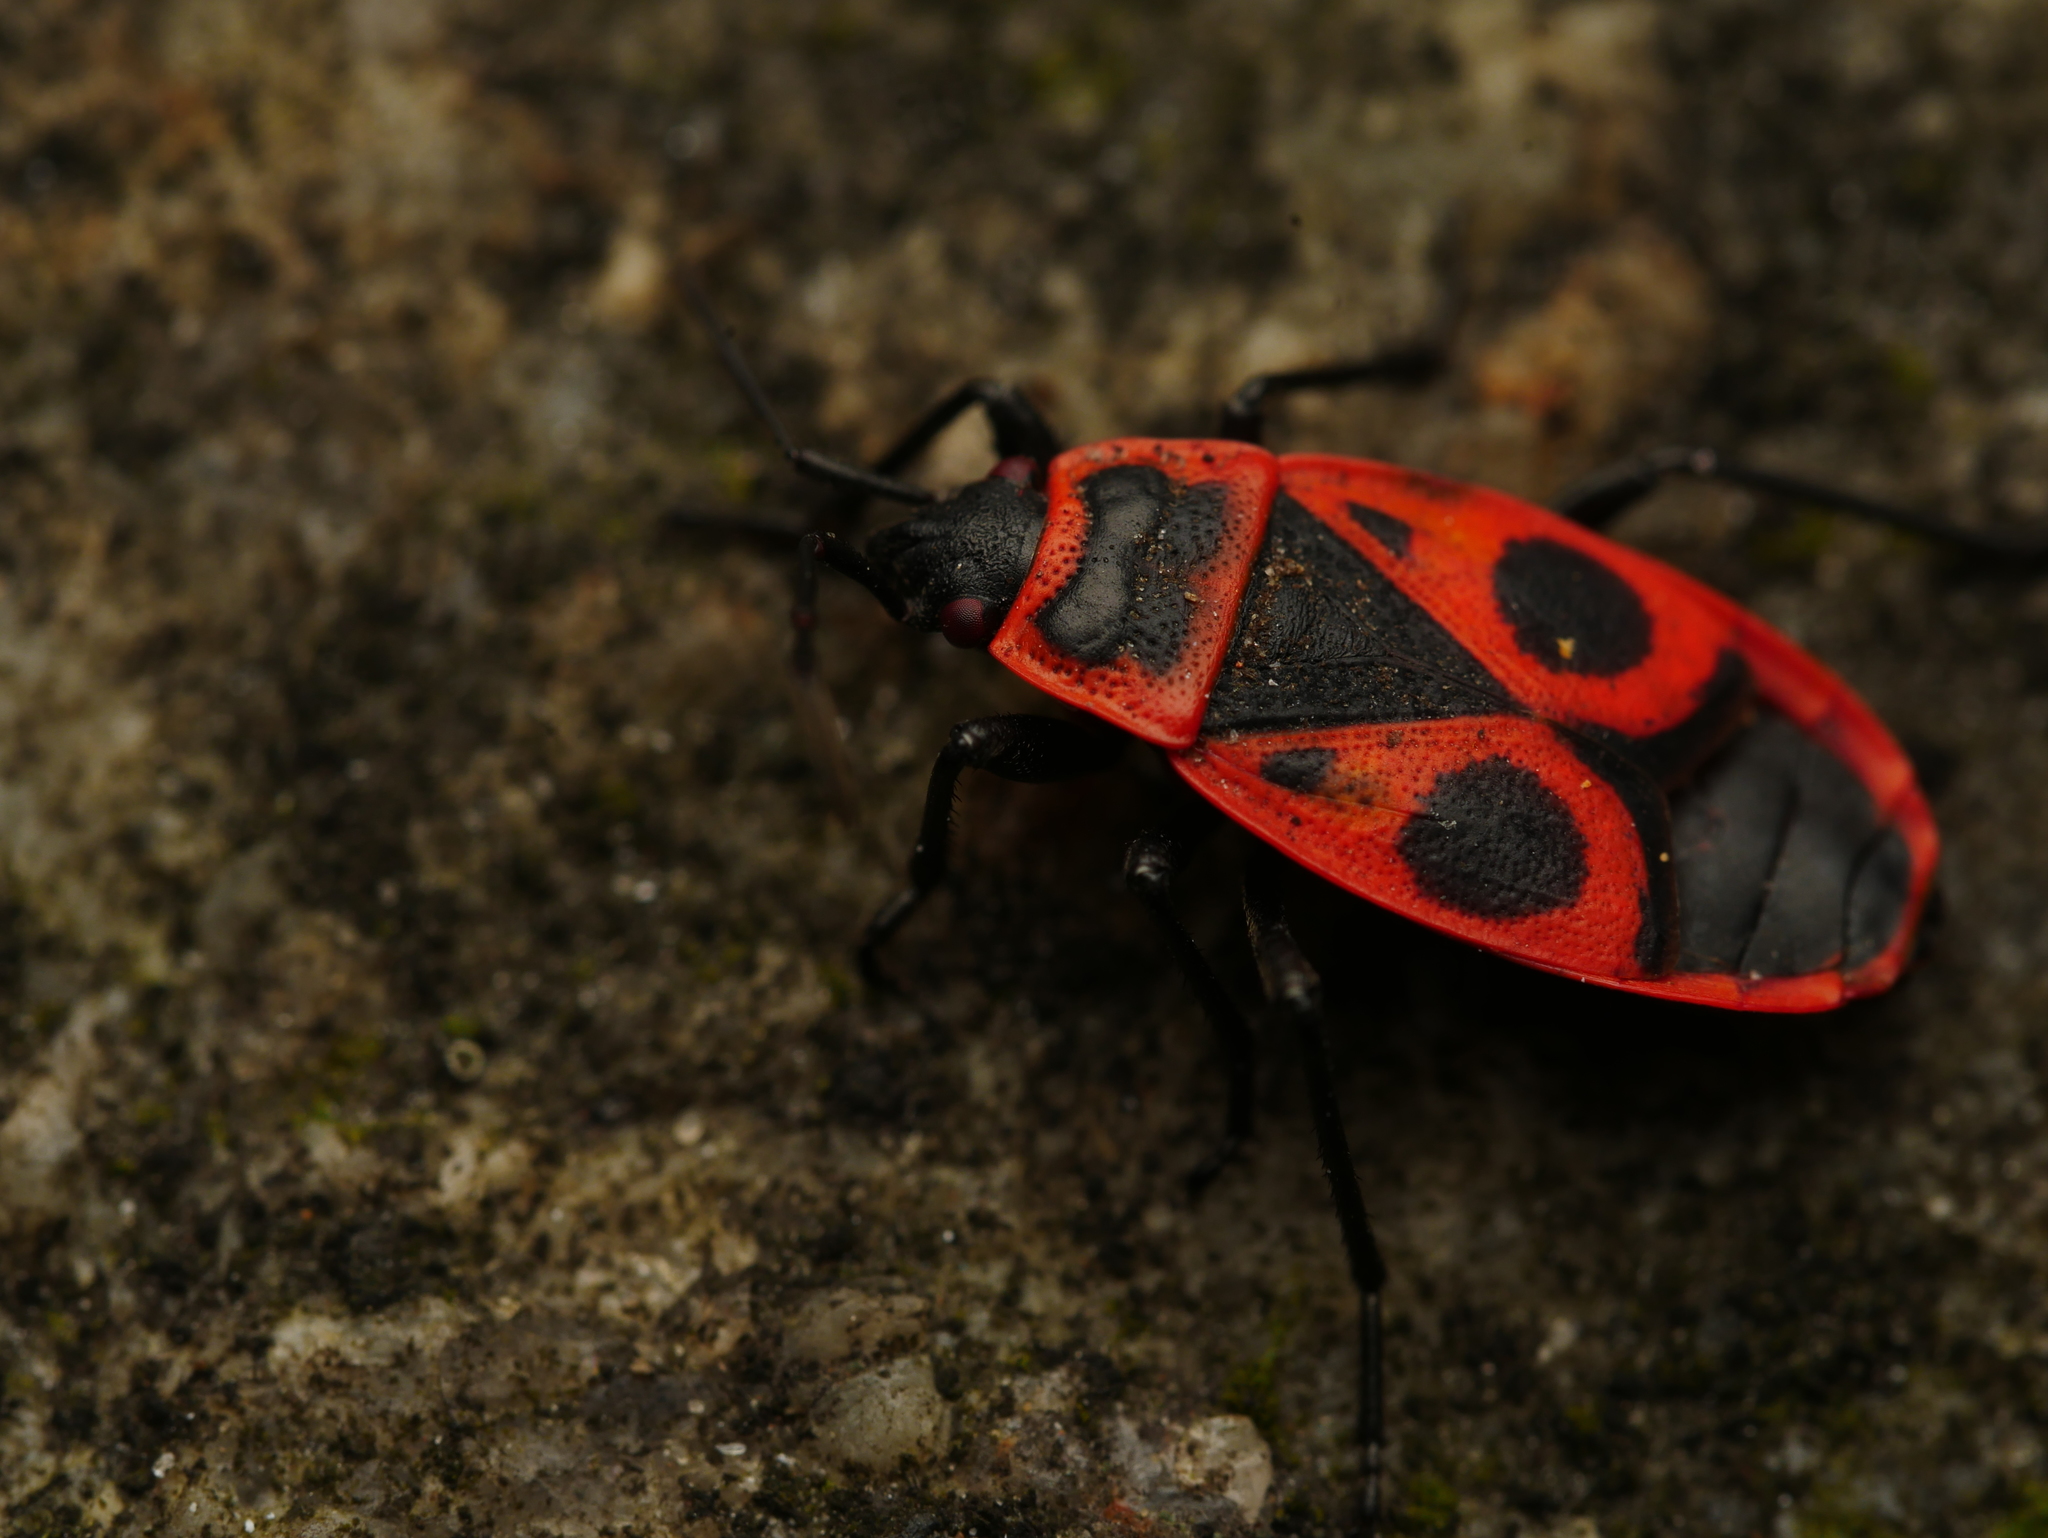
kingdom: Animalia
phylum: Arthropoda
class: Insecta
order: Hemiptera
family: Pyrrhocoridae
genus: Pyrrhocoris
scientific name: Pyrrhocoris apterus
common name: Firebug
